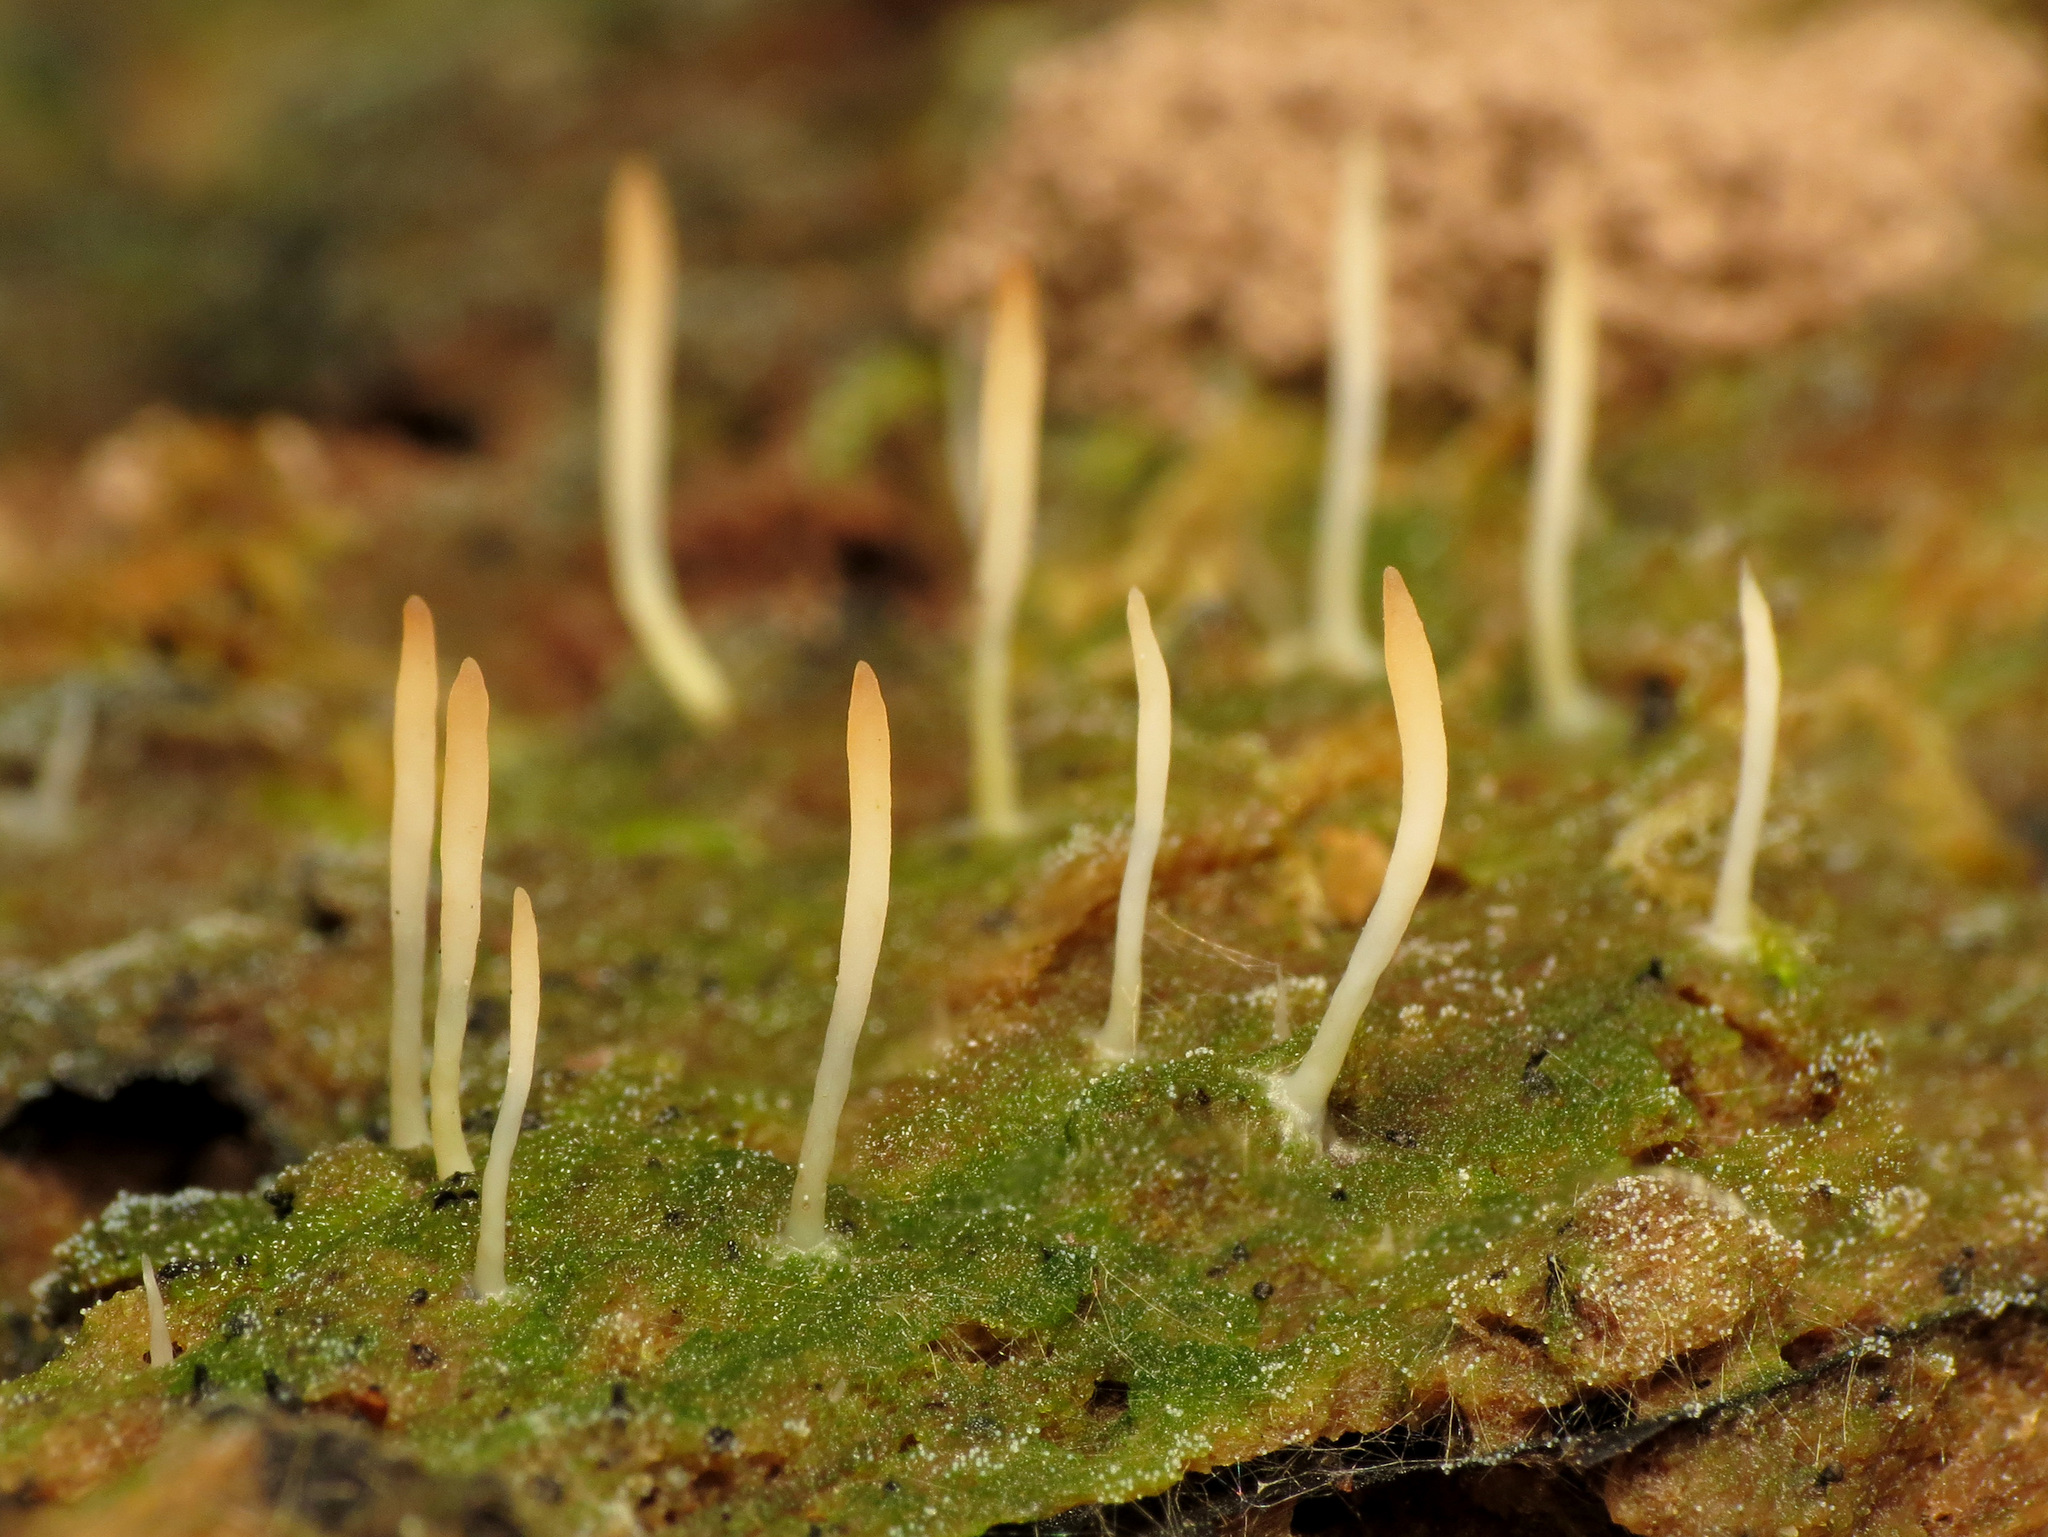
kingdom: Fungi
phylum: Basidiomycota
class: Agaricomycetes
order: Cantharellales
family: Hydnaceae
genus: Multiclavula
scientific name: Multiclavula mucida
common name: White green-algae coral
